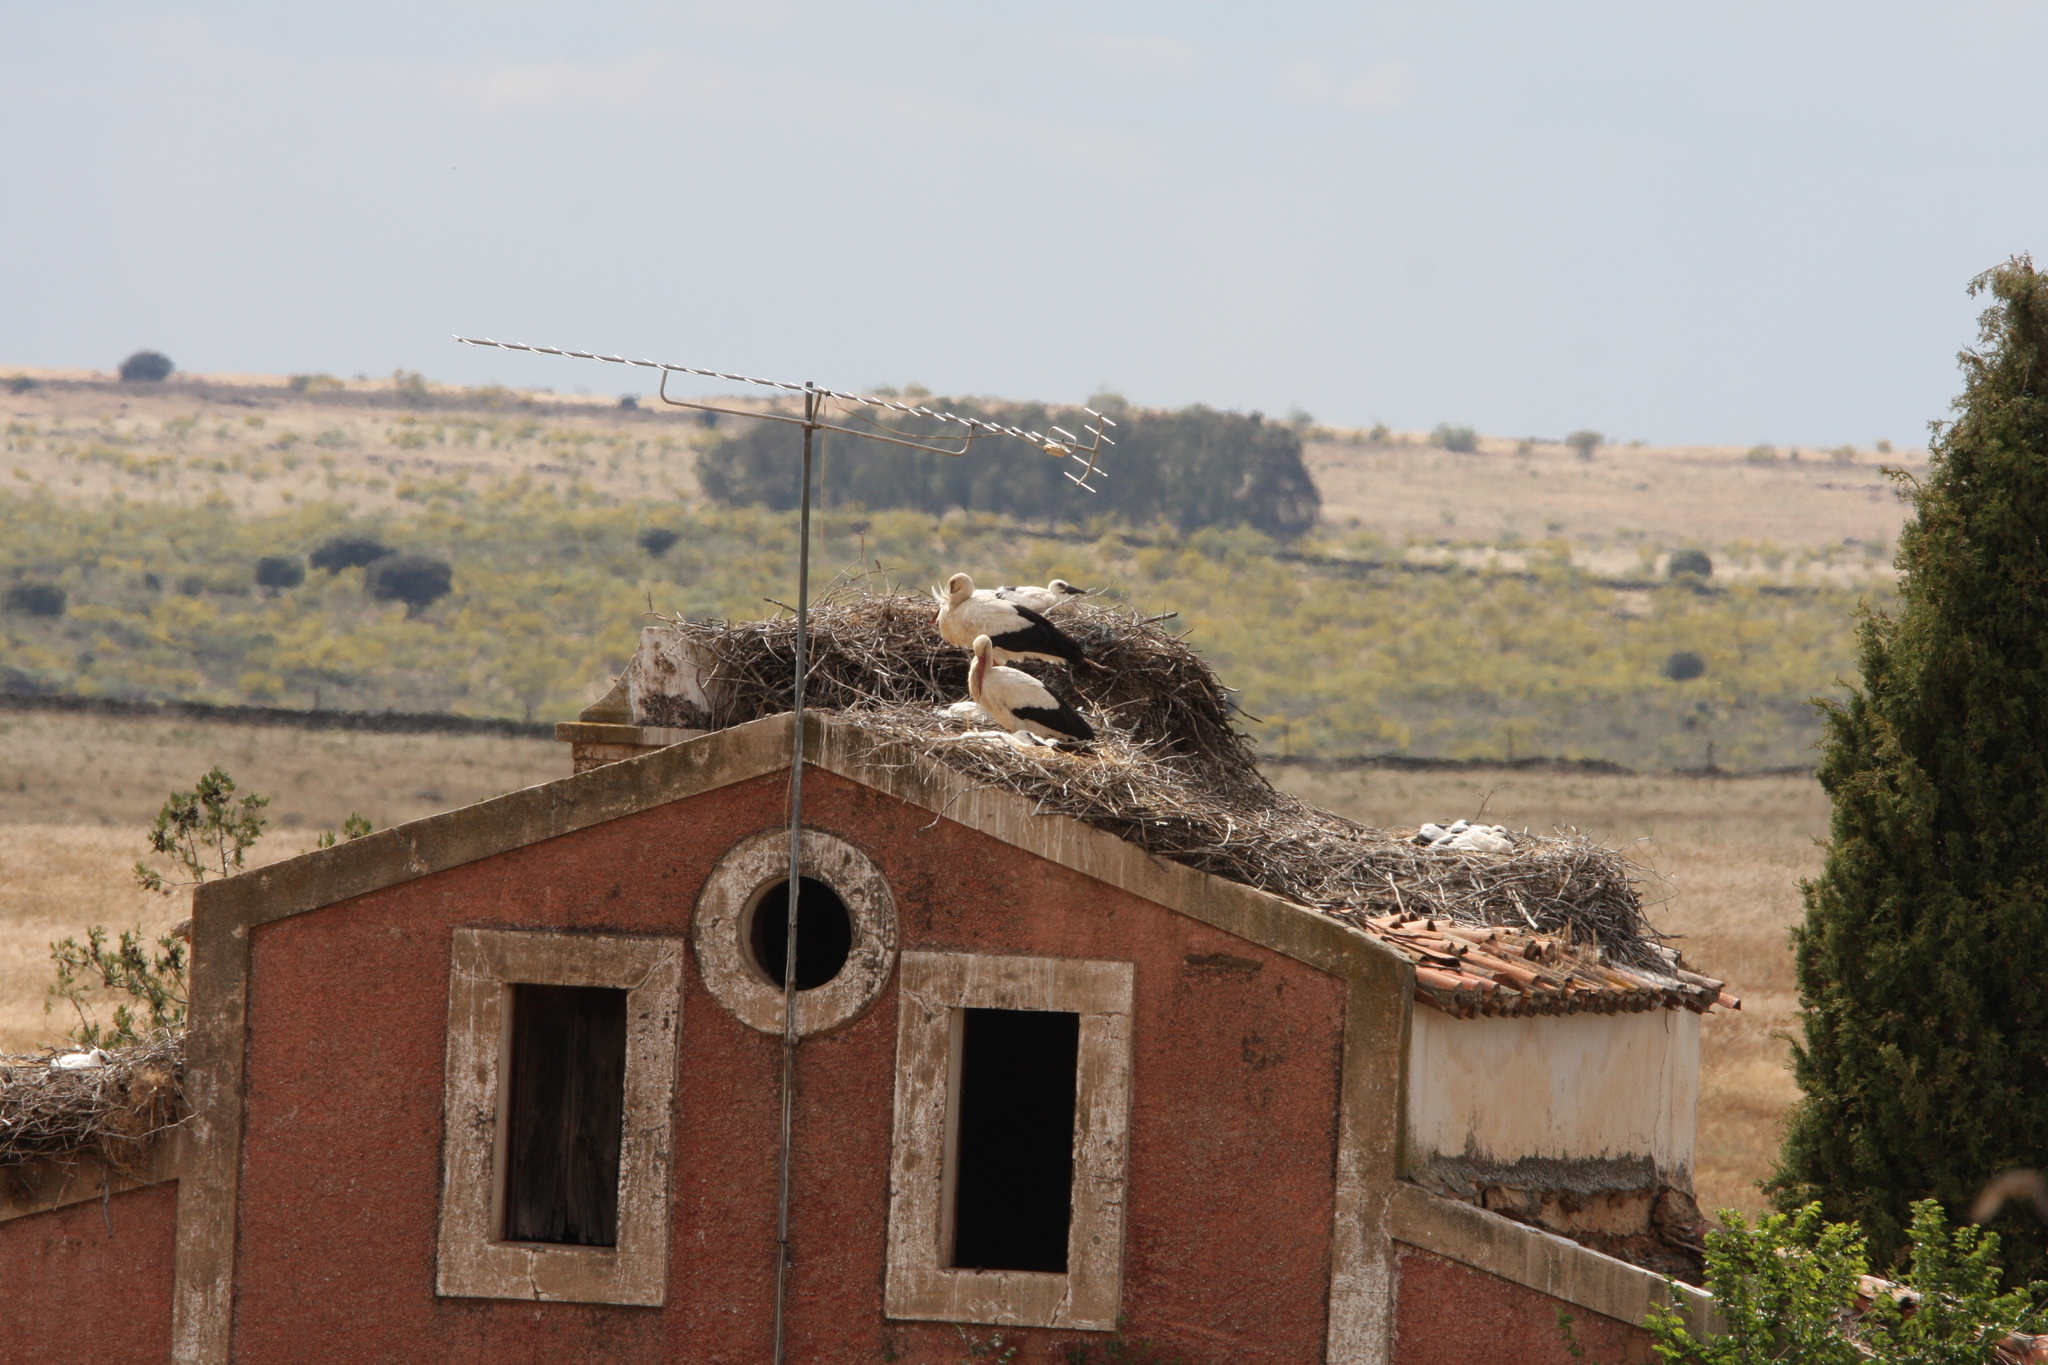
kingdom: Animalia
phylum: Chordata
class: Aves
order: Ciconiiformes
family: Ciconiidae
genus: Ciconia
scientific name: Ciconia ciconia
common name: White stork
